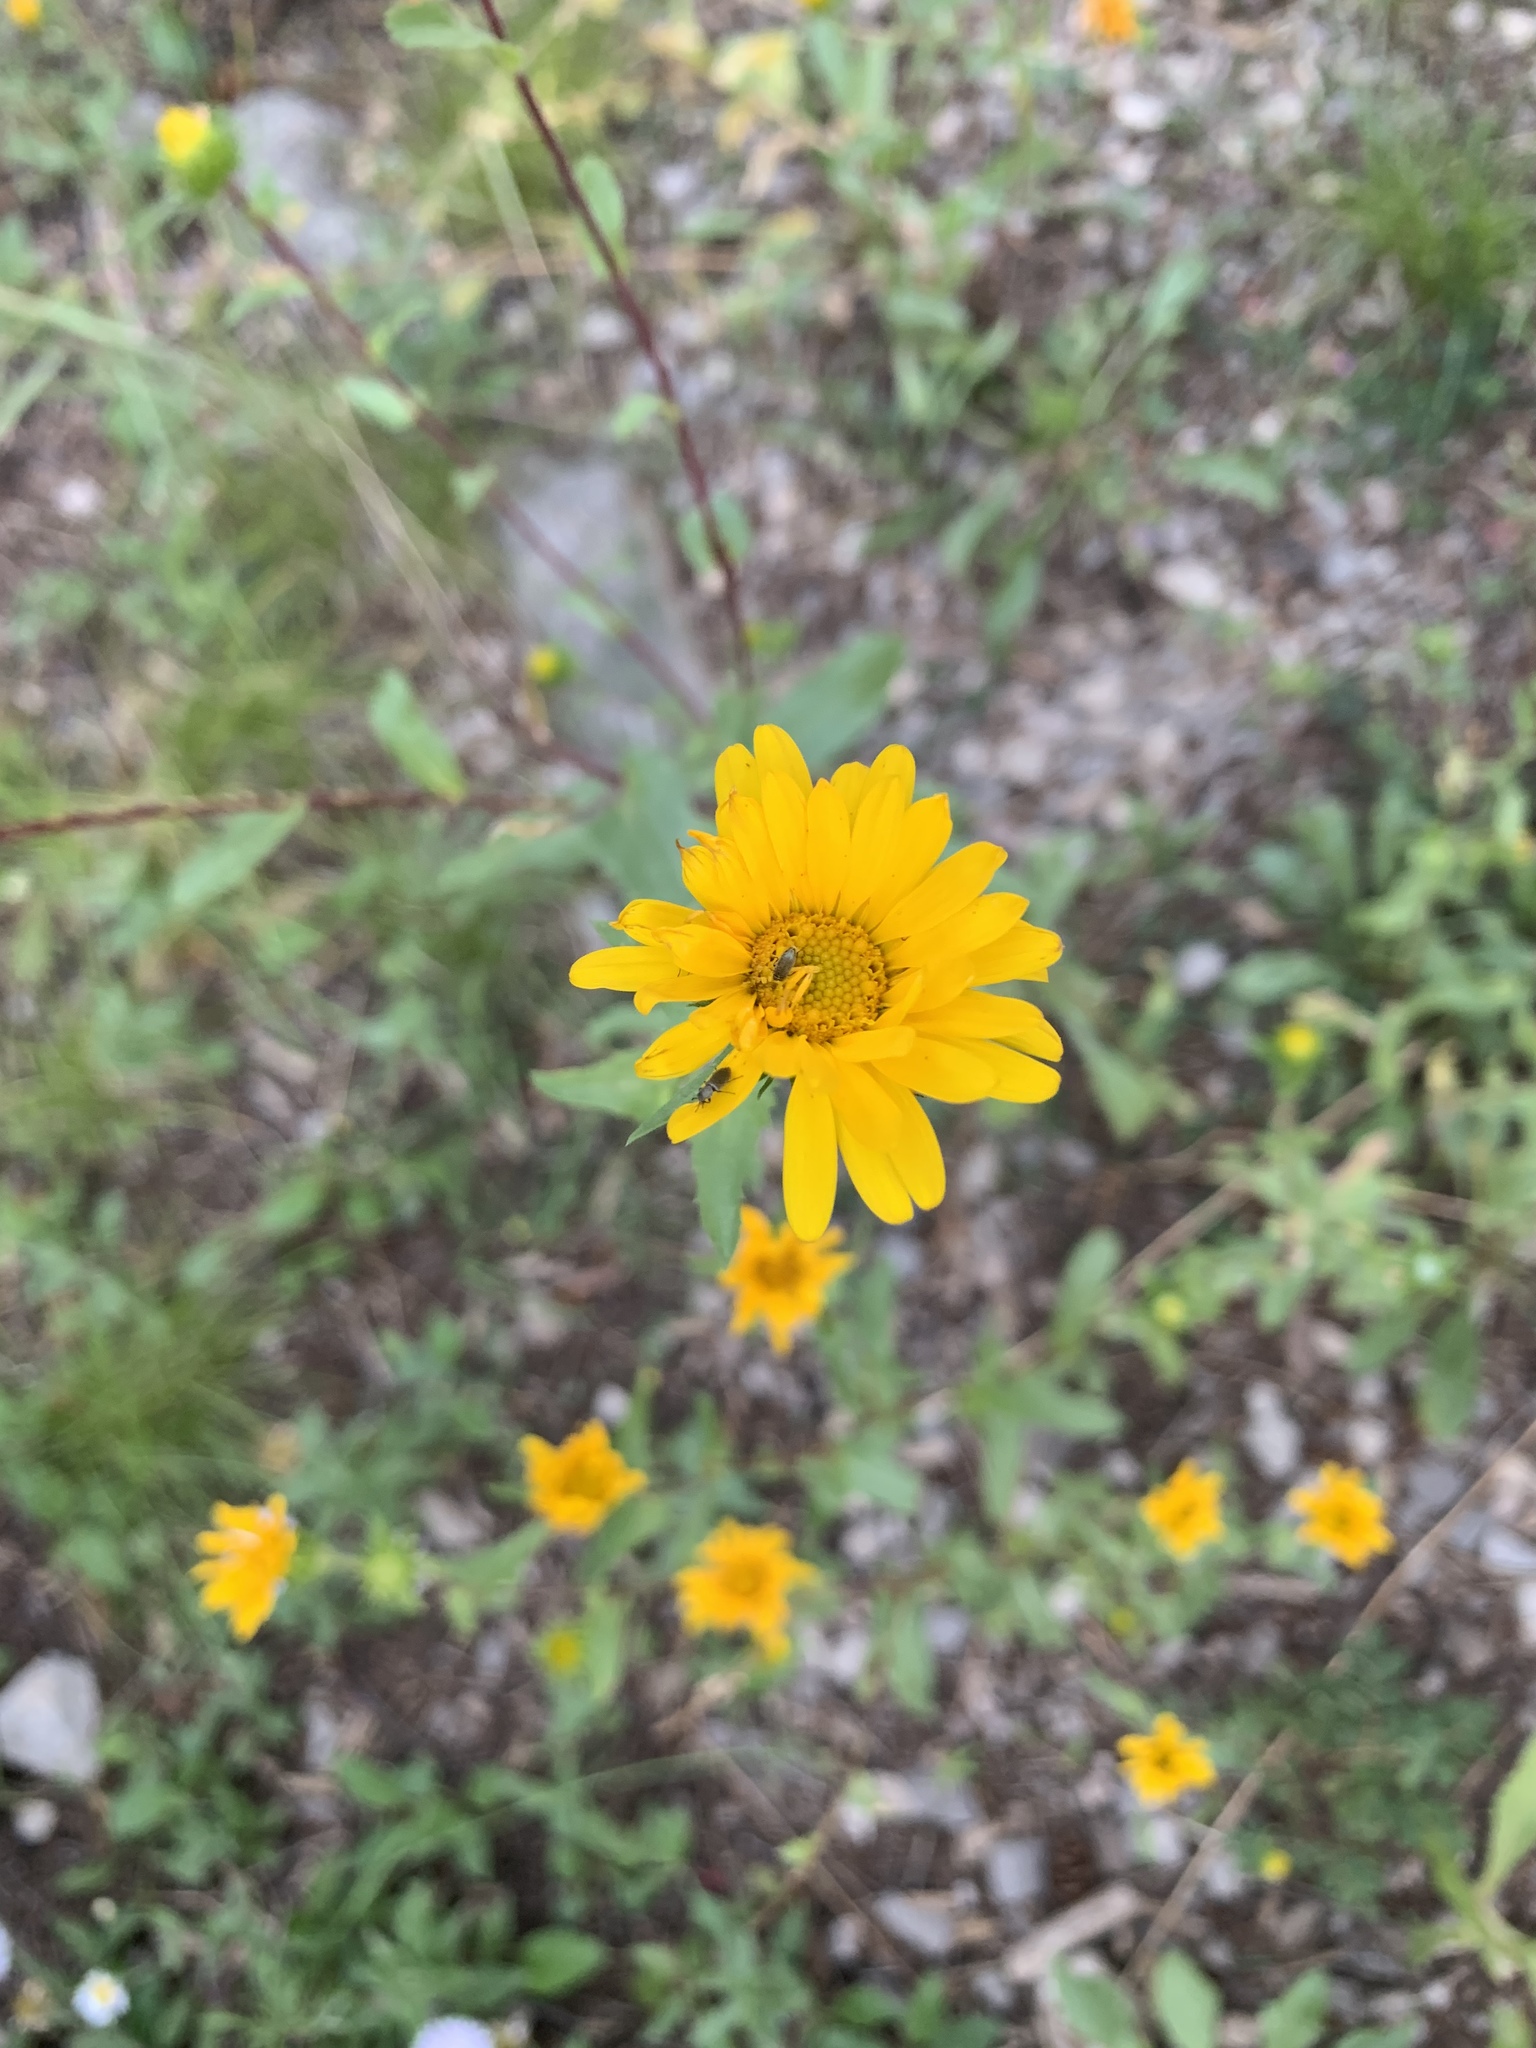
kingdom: Plantae
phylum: Tracheophyta
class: Magnoliopsida
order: Asterales
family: Asteraceae
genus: Grindelia
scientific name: Grindelia scabra
